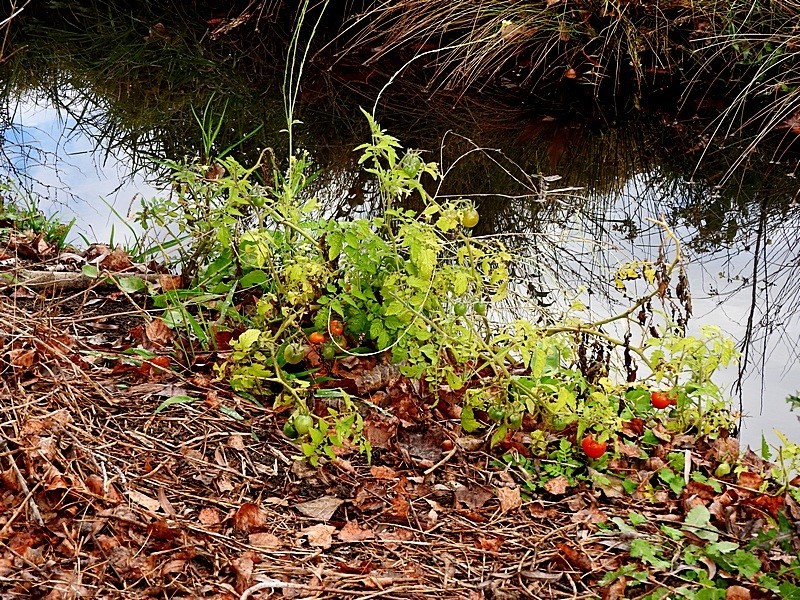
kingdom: Plantae
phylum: Tracheophyta
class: Magnoliopsida
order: Solanales
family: Solanaceae
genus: Solanum
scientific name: Solanum lycopersicum
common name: Garden tomato
